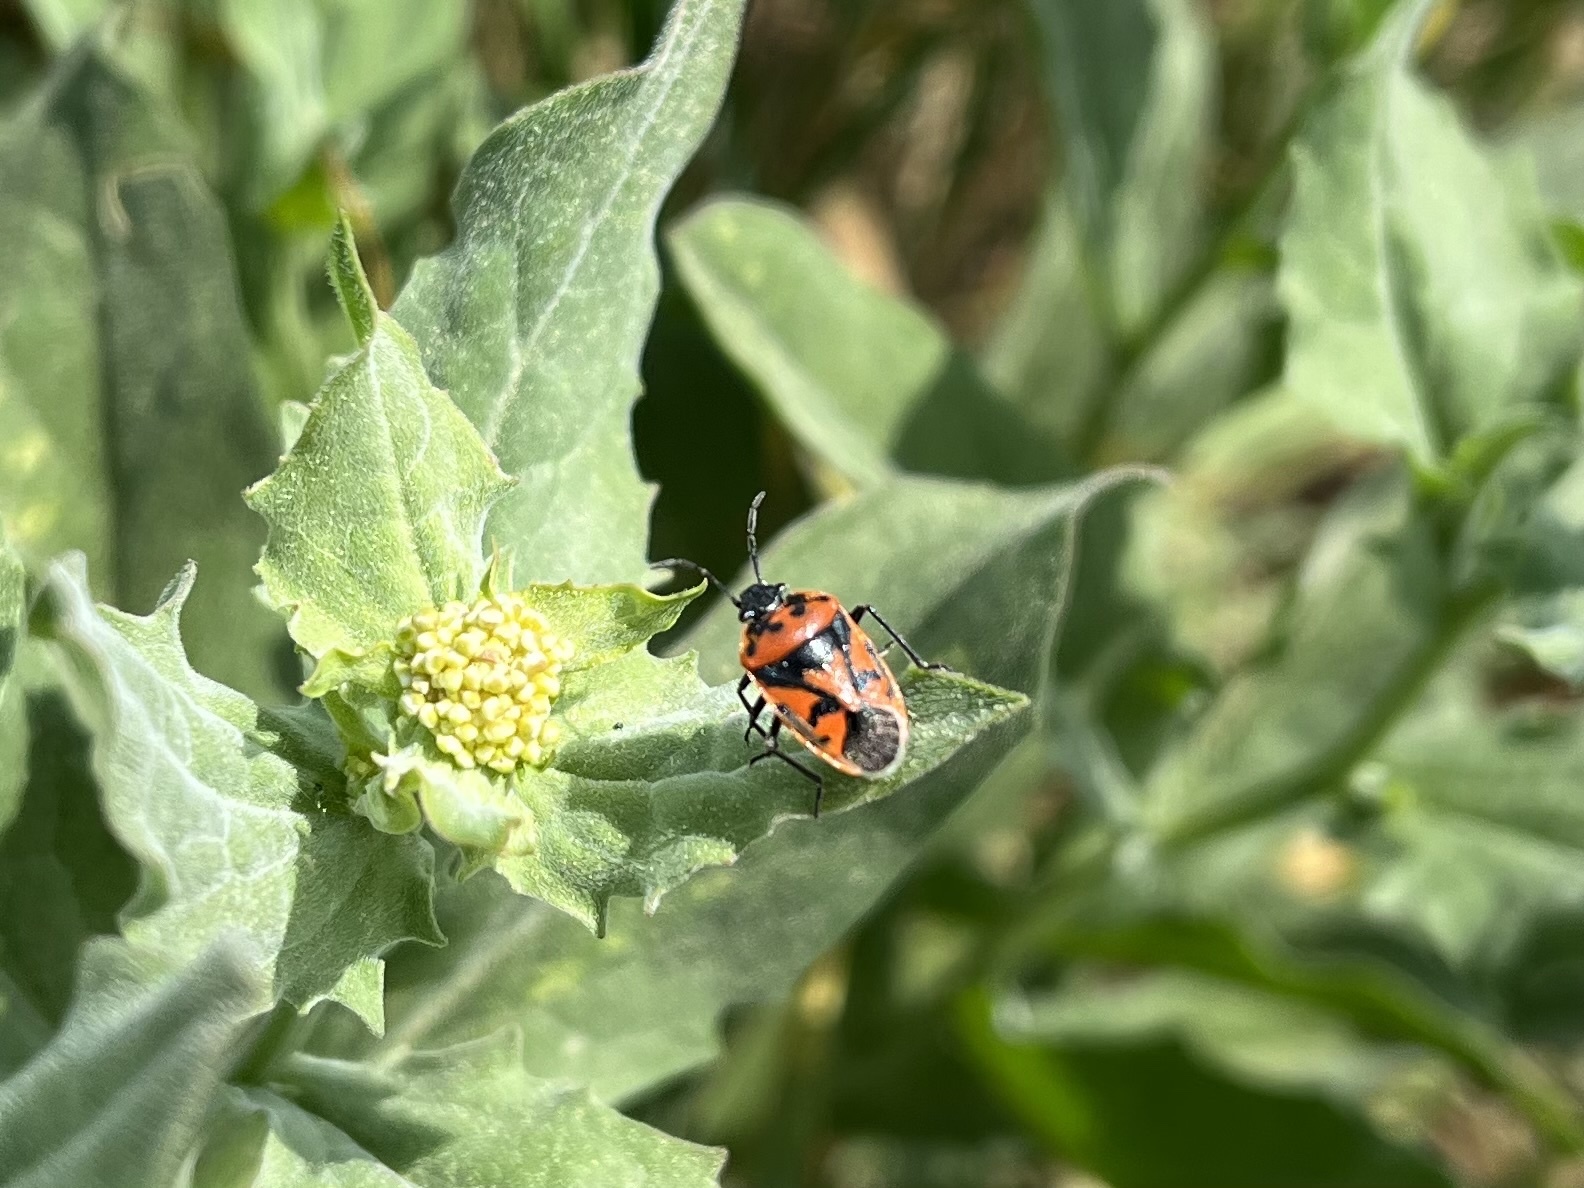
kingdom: Animalia
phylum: Arthropoda
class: Insecta
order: Hemiptera
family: Pentatomidae
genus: Eurydema
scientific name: Eurydema ornata
